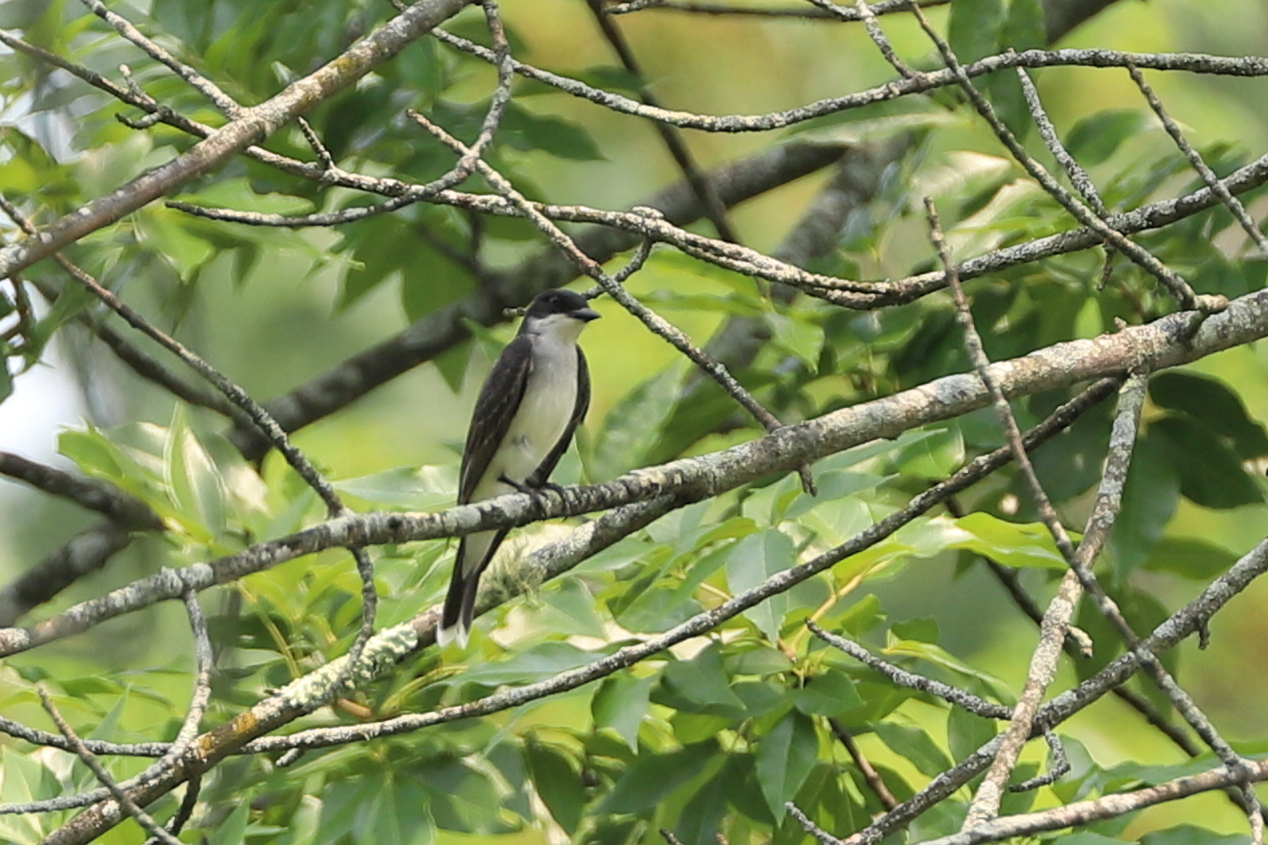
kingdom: Animalia
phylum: Chordata
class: Aves
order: Passeriformes
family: Tyrannidae
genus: Tyrannus
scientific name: Tyrannus tyrannus
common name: Eastern kingbird
